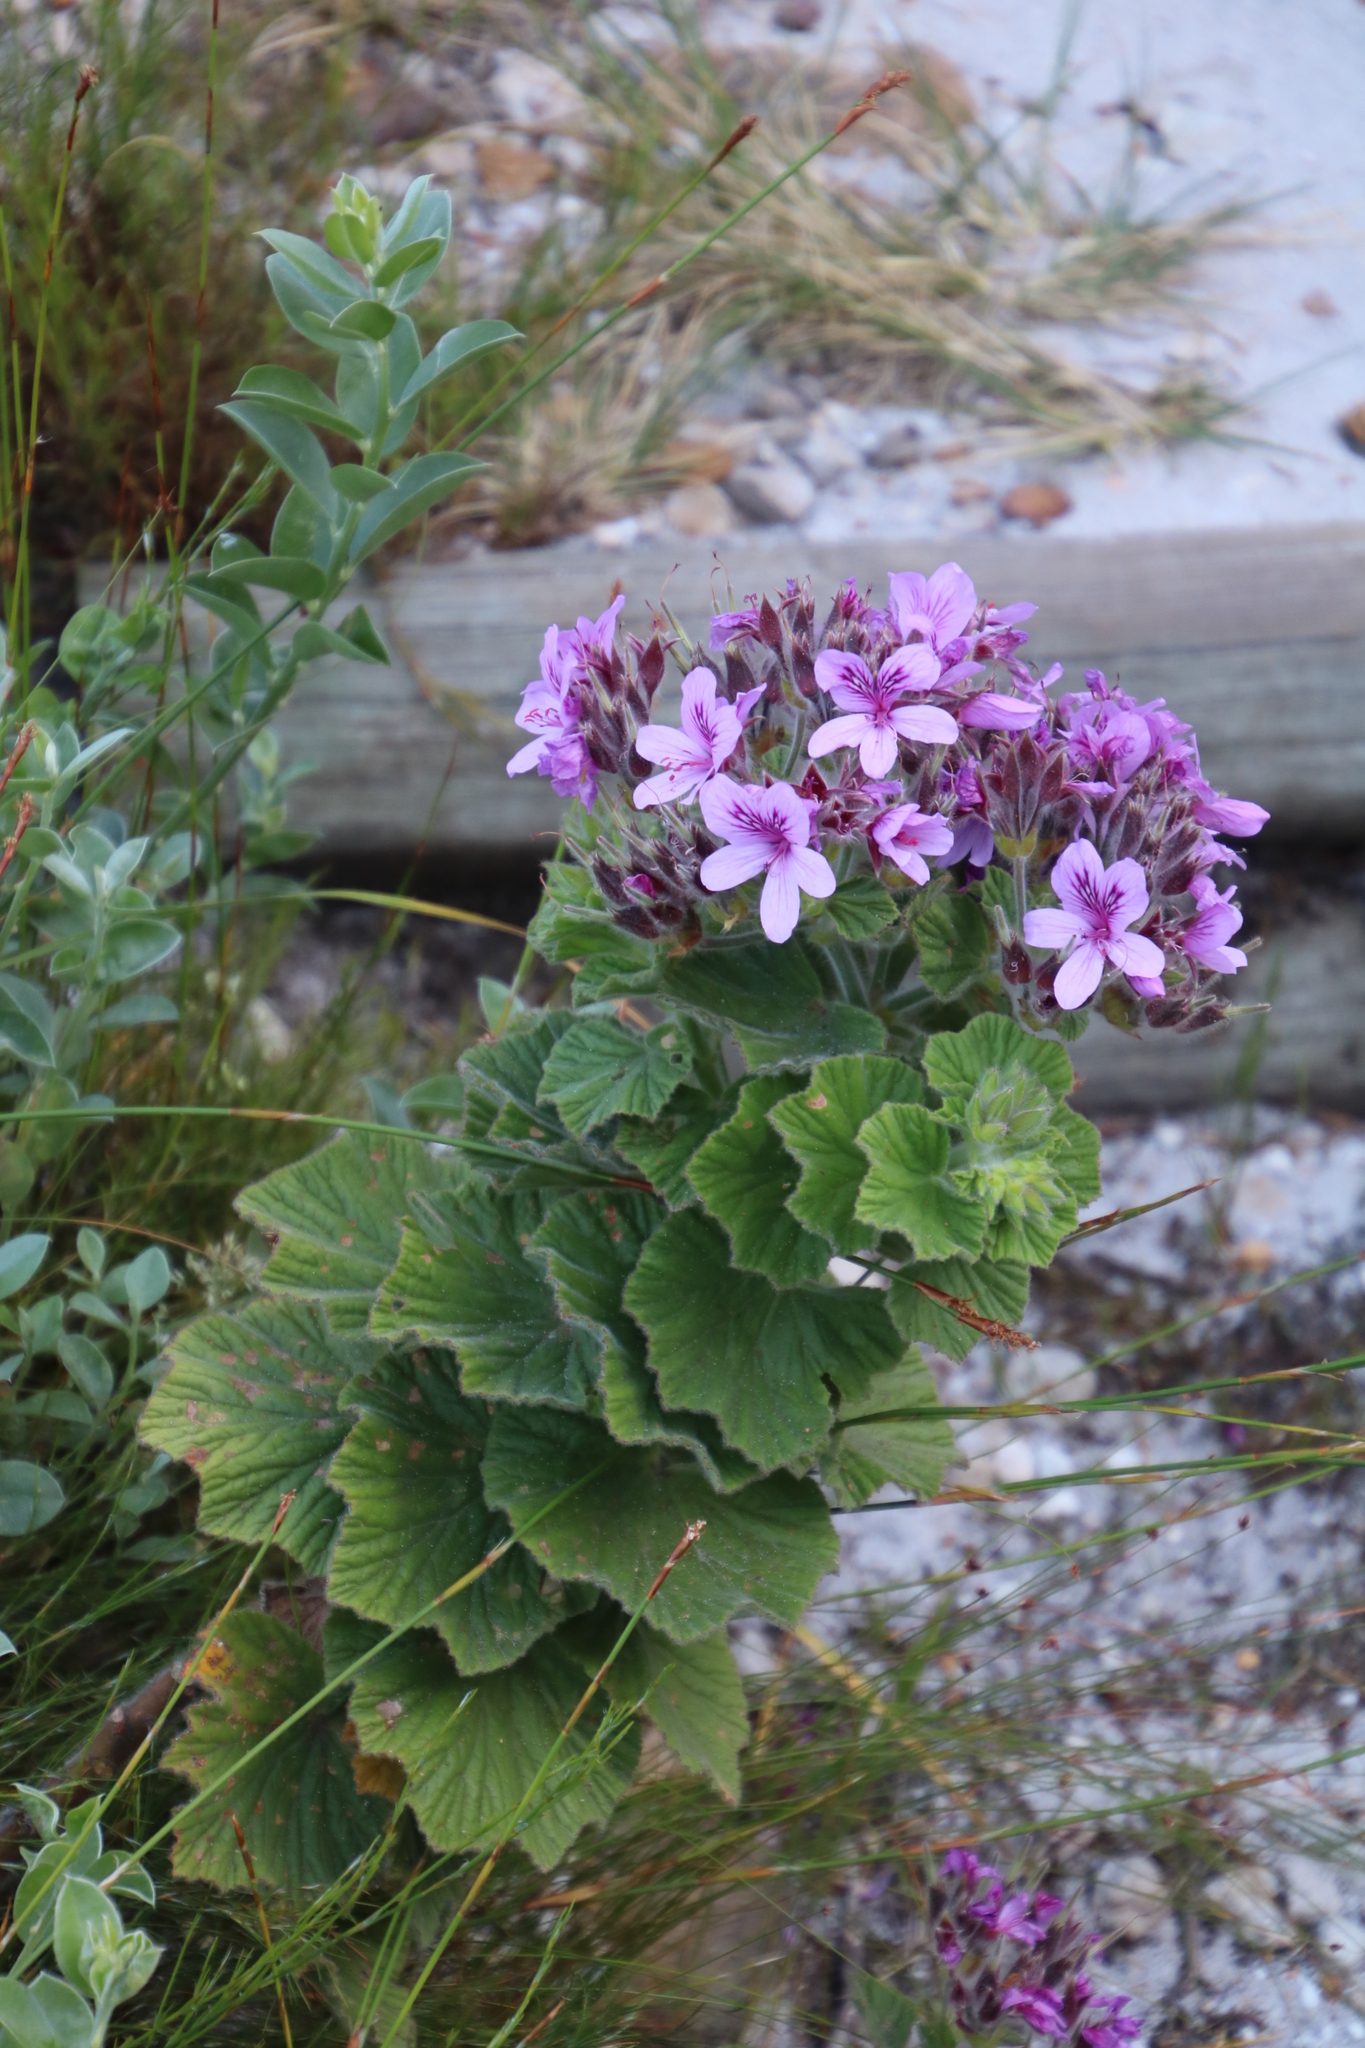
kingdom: Plantae
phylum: Tracheophyta
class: Magnoliopsida
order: Geraniales
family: Geraniaceae
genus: Pelargonium
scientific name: Pelargonium cucullatum
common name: Tree pelargonium
